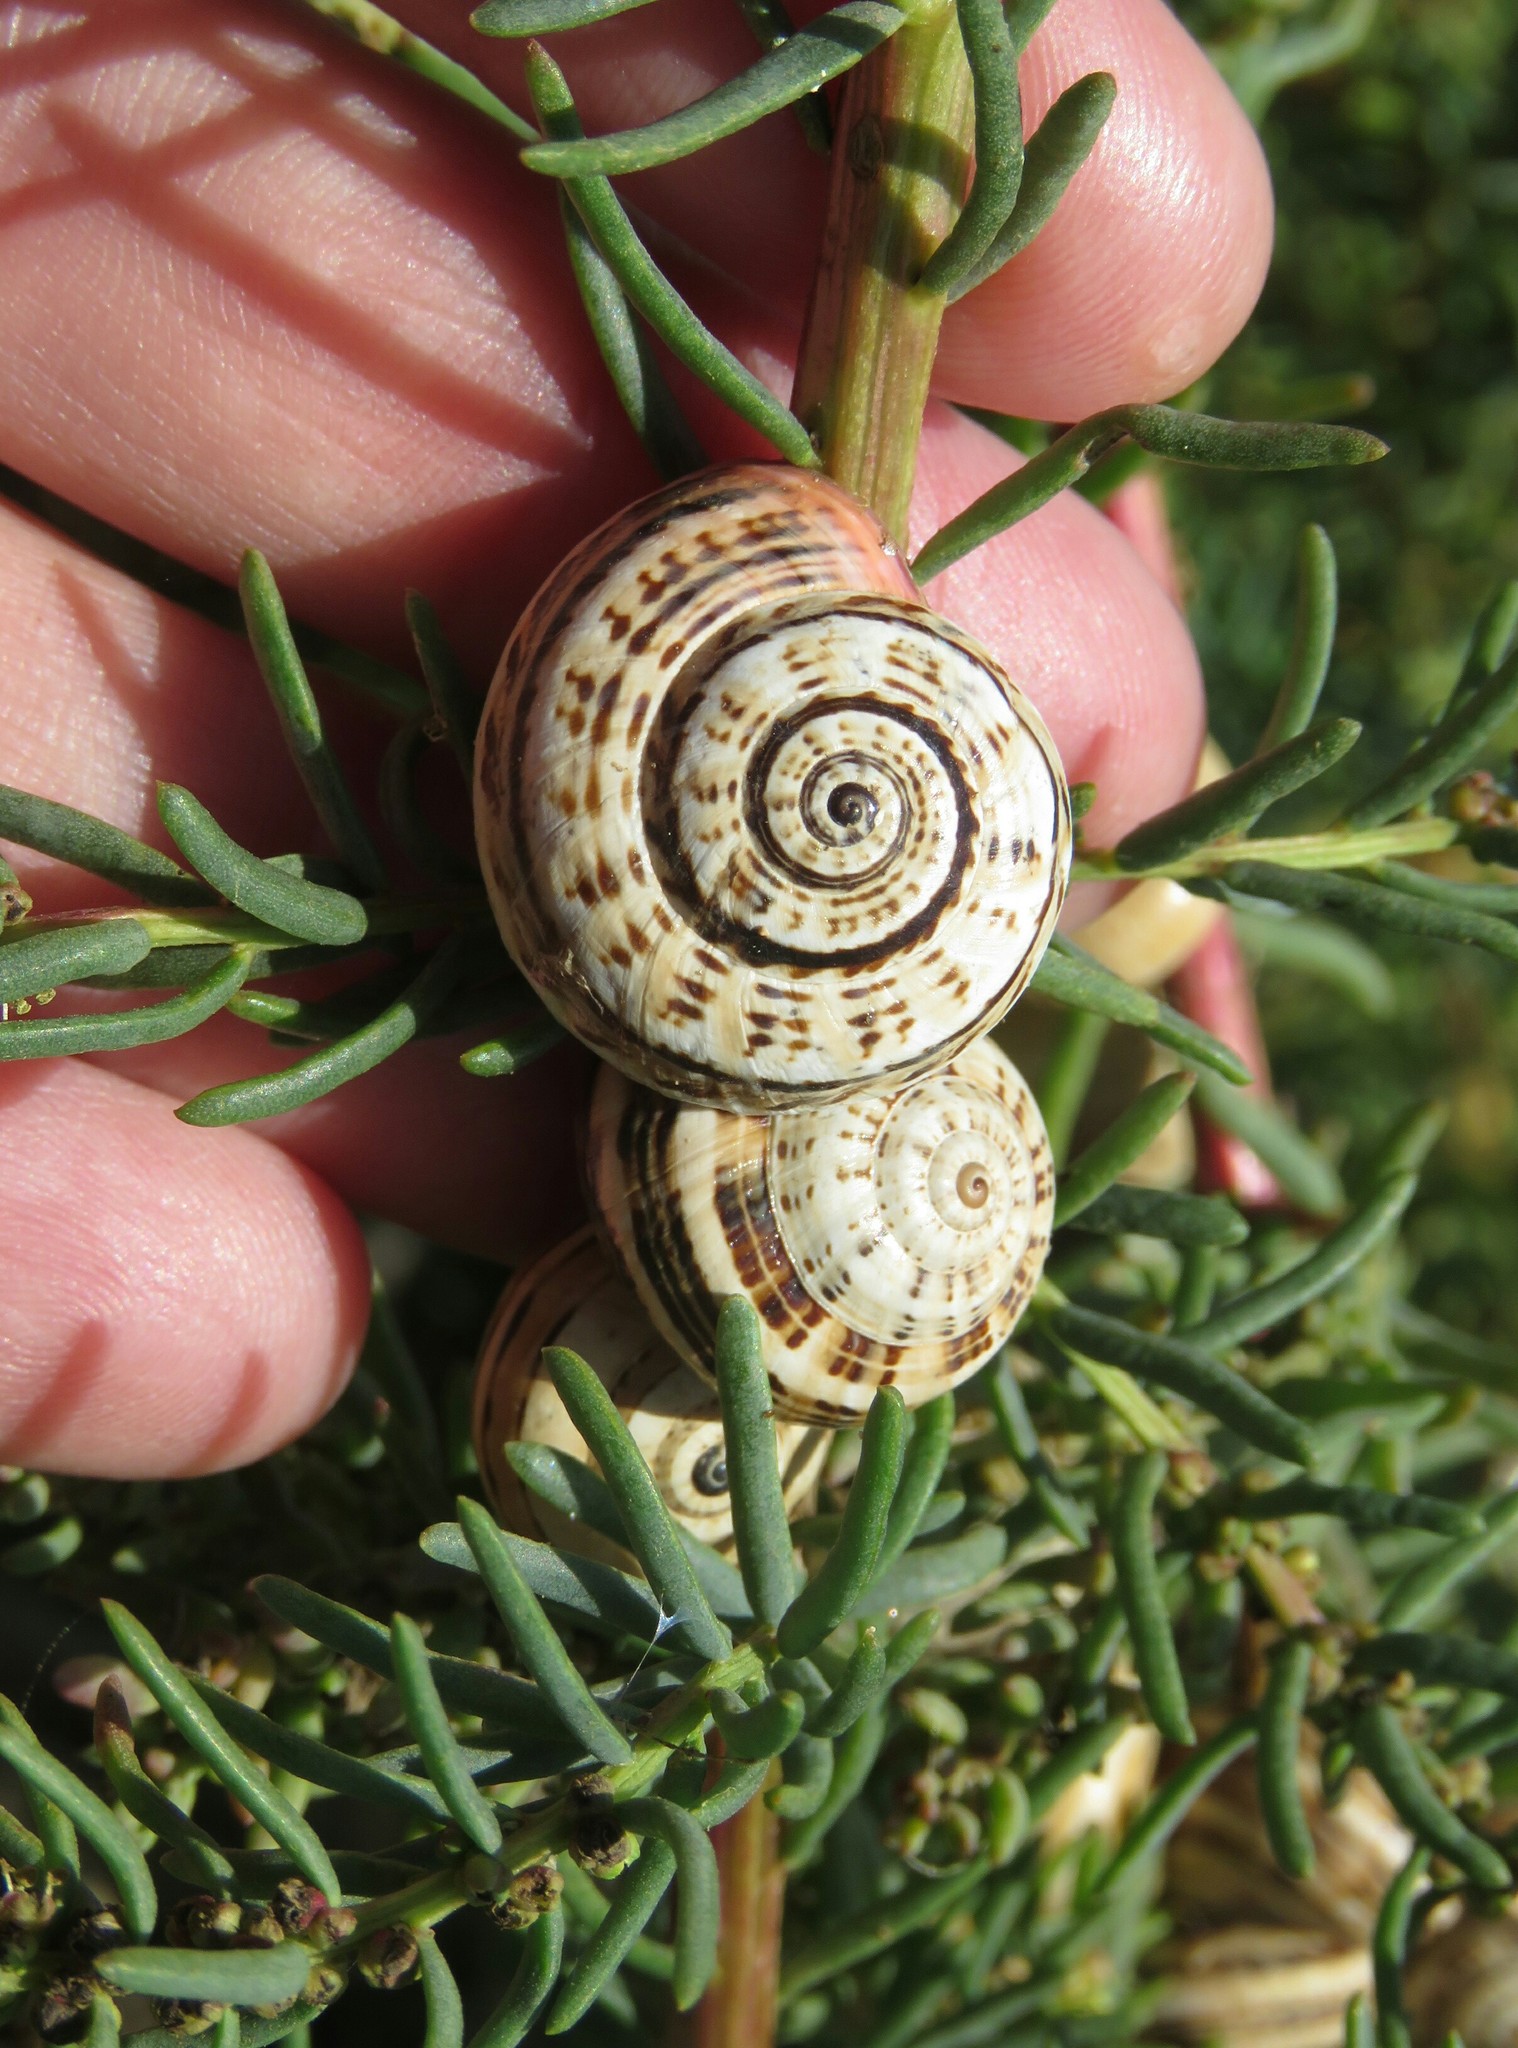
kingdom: Animalia
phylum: Mollusca
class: Gastropoda
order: Stylommatophora
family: Helicidae
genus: Theba
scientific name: Theba pisana
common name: White snail
